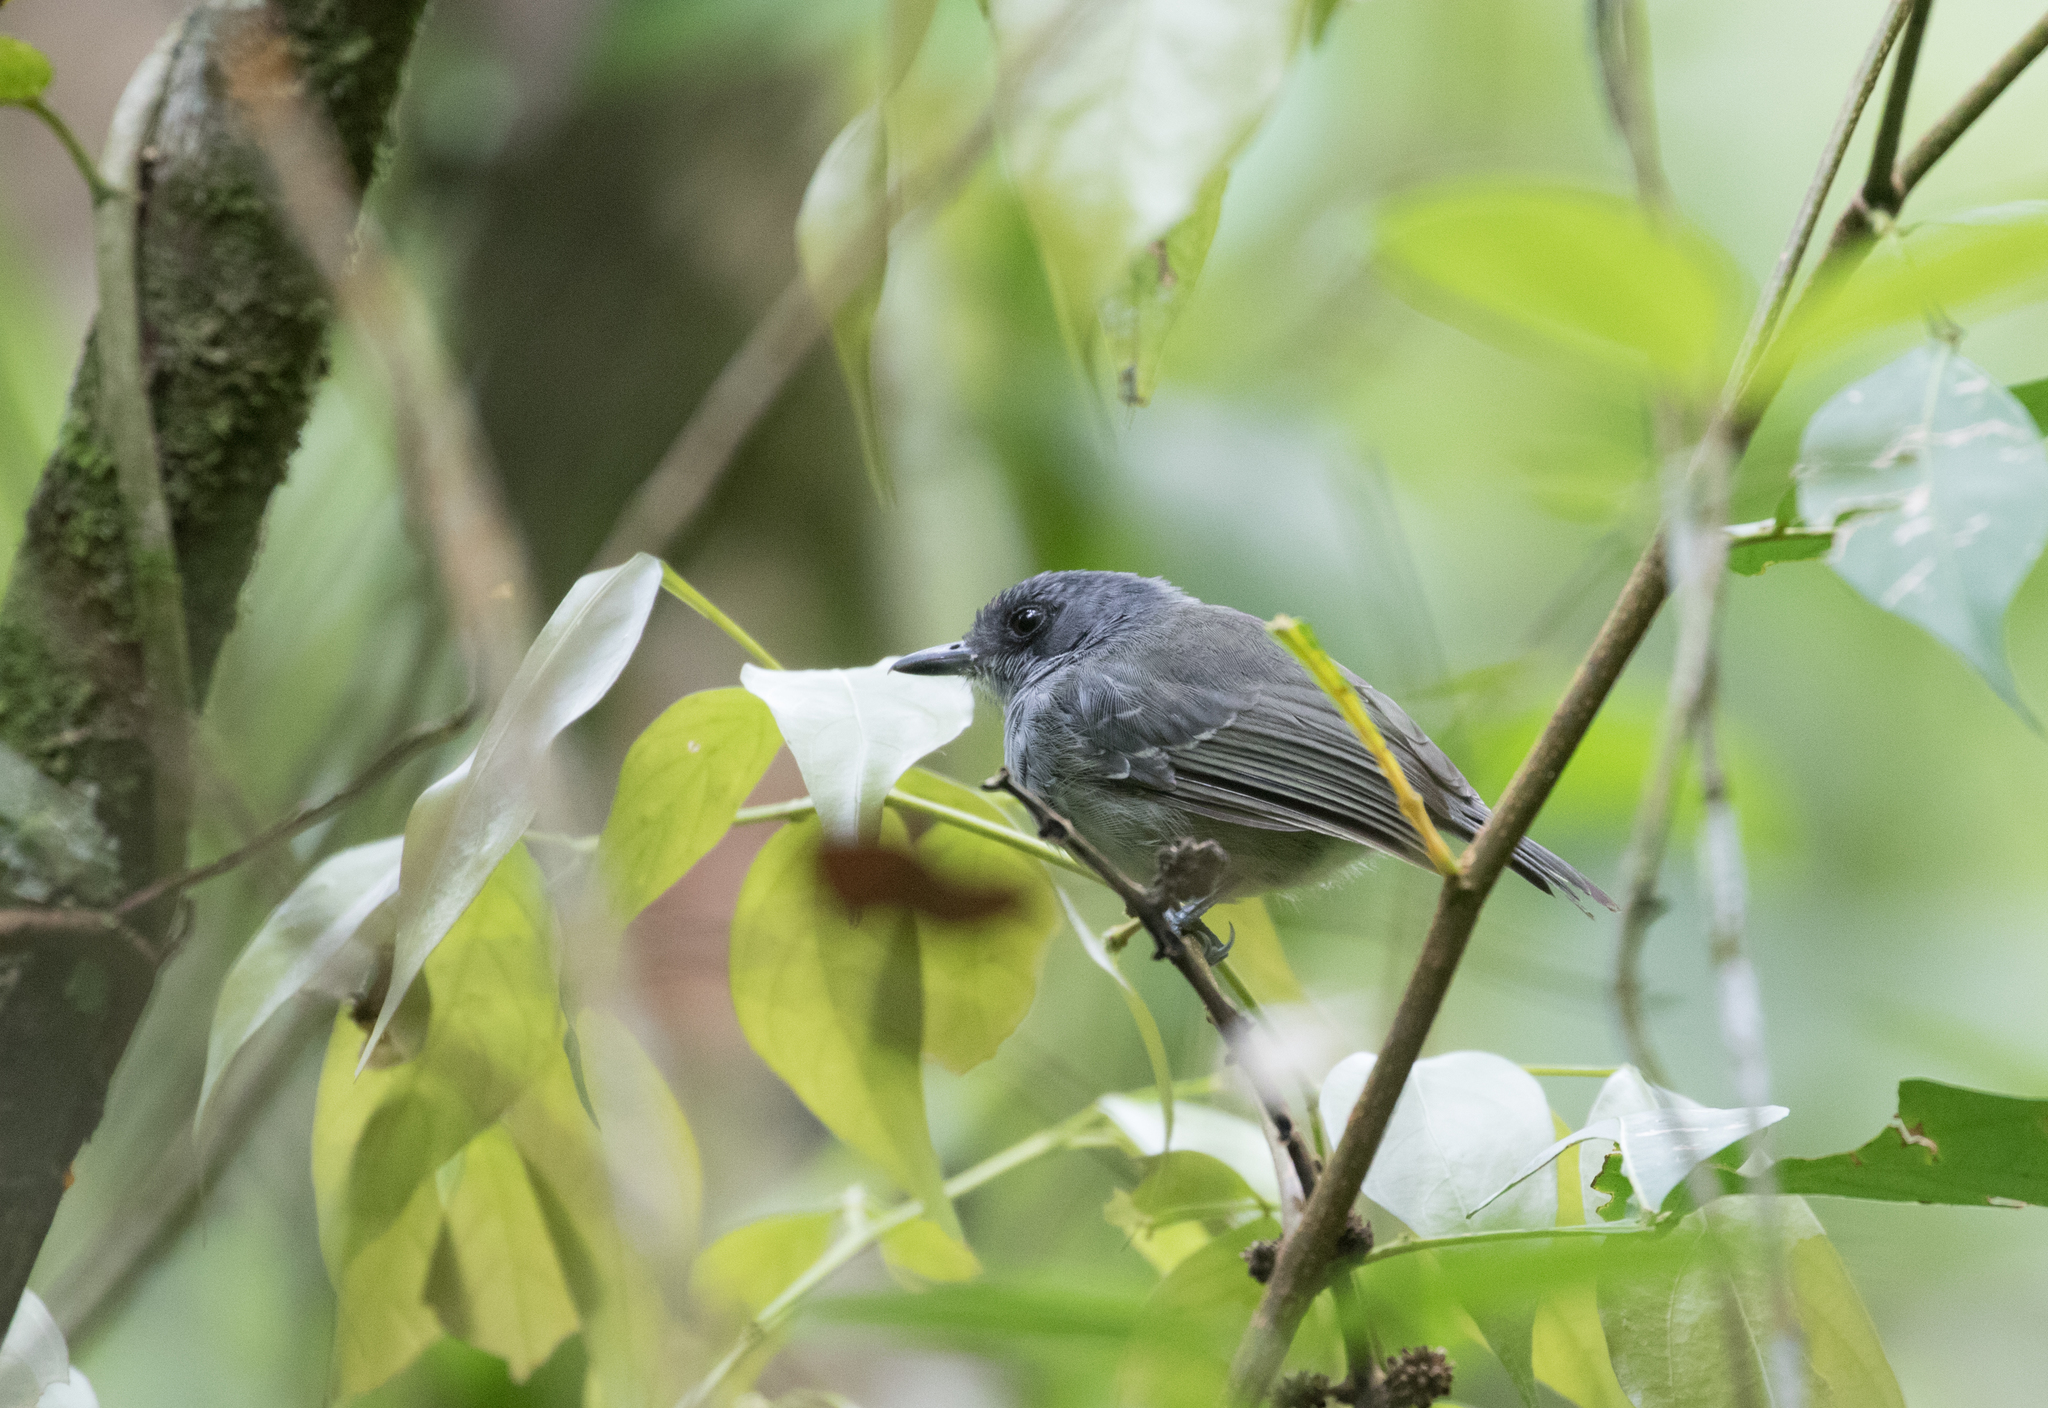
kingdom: Animalia
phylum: Chordata
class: Aves
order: Passeriformes
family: Thamnophilidae
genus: Dysithamnus
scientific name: Dysithamnus mentalis
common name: Plain antvireo
